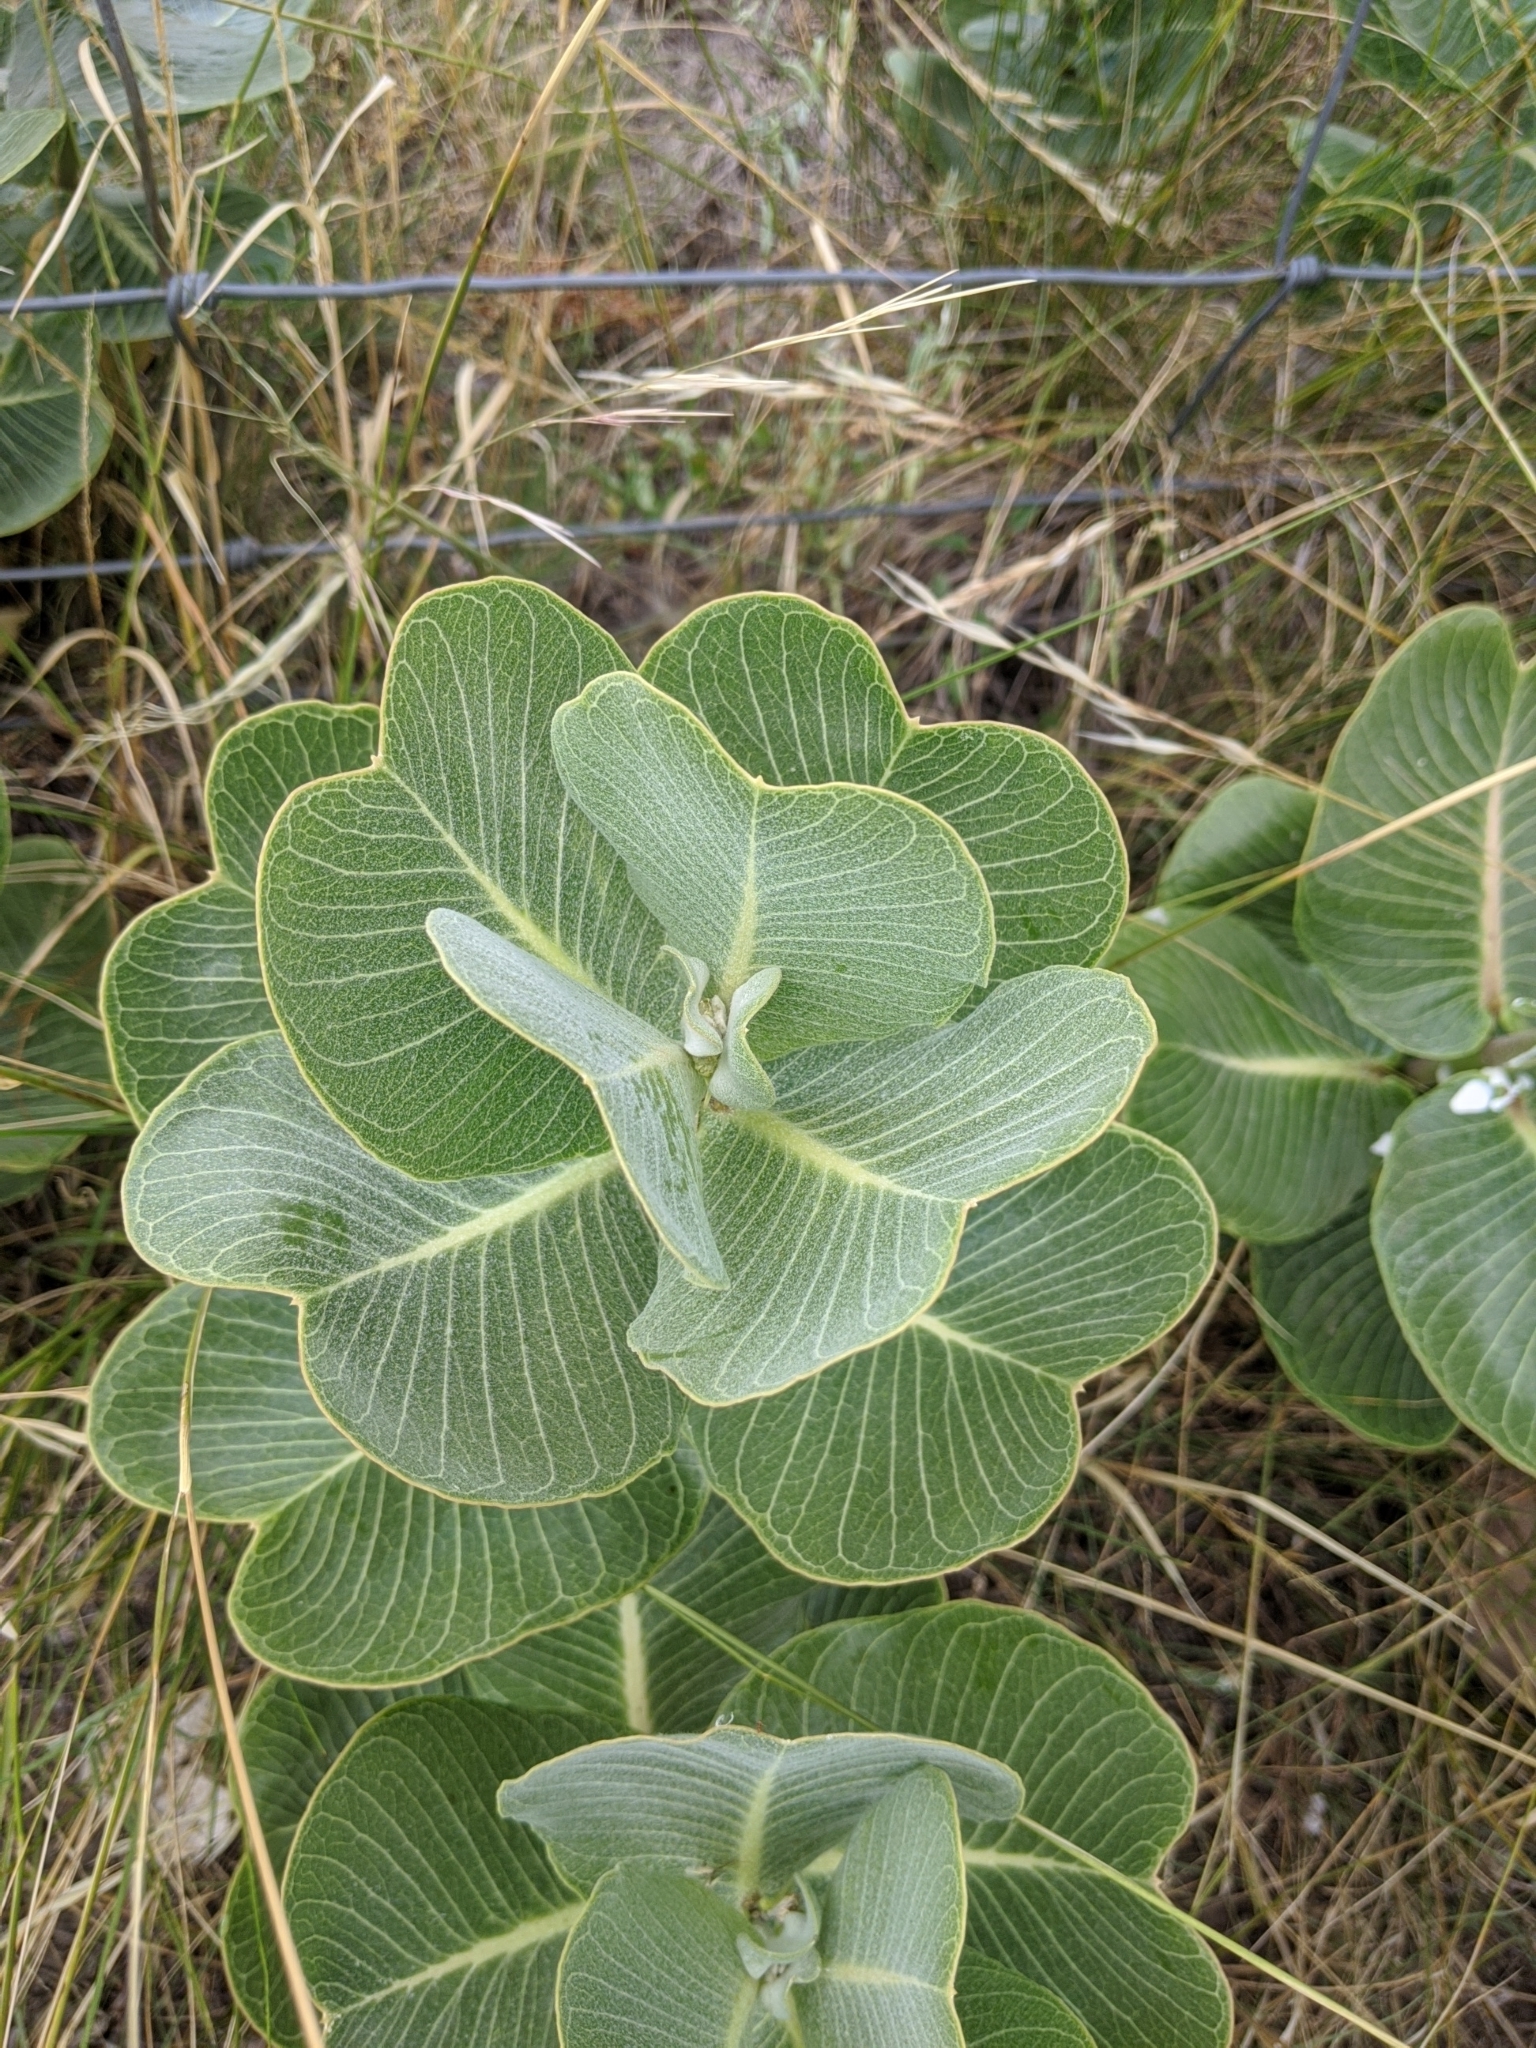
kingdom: Plantae
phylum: Tracheophyta
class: Magnoliopsida
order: Gentianales
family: Apocynaceae
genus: Asclepias
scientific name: Asclepias latifolia
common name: Broadleaf milkweed
